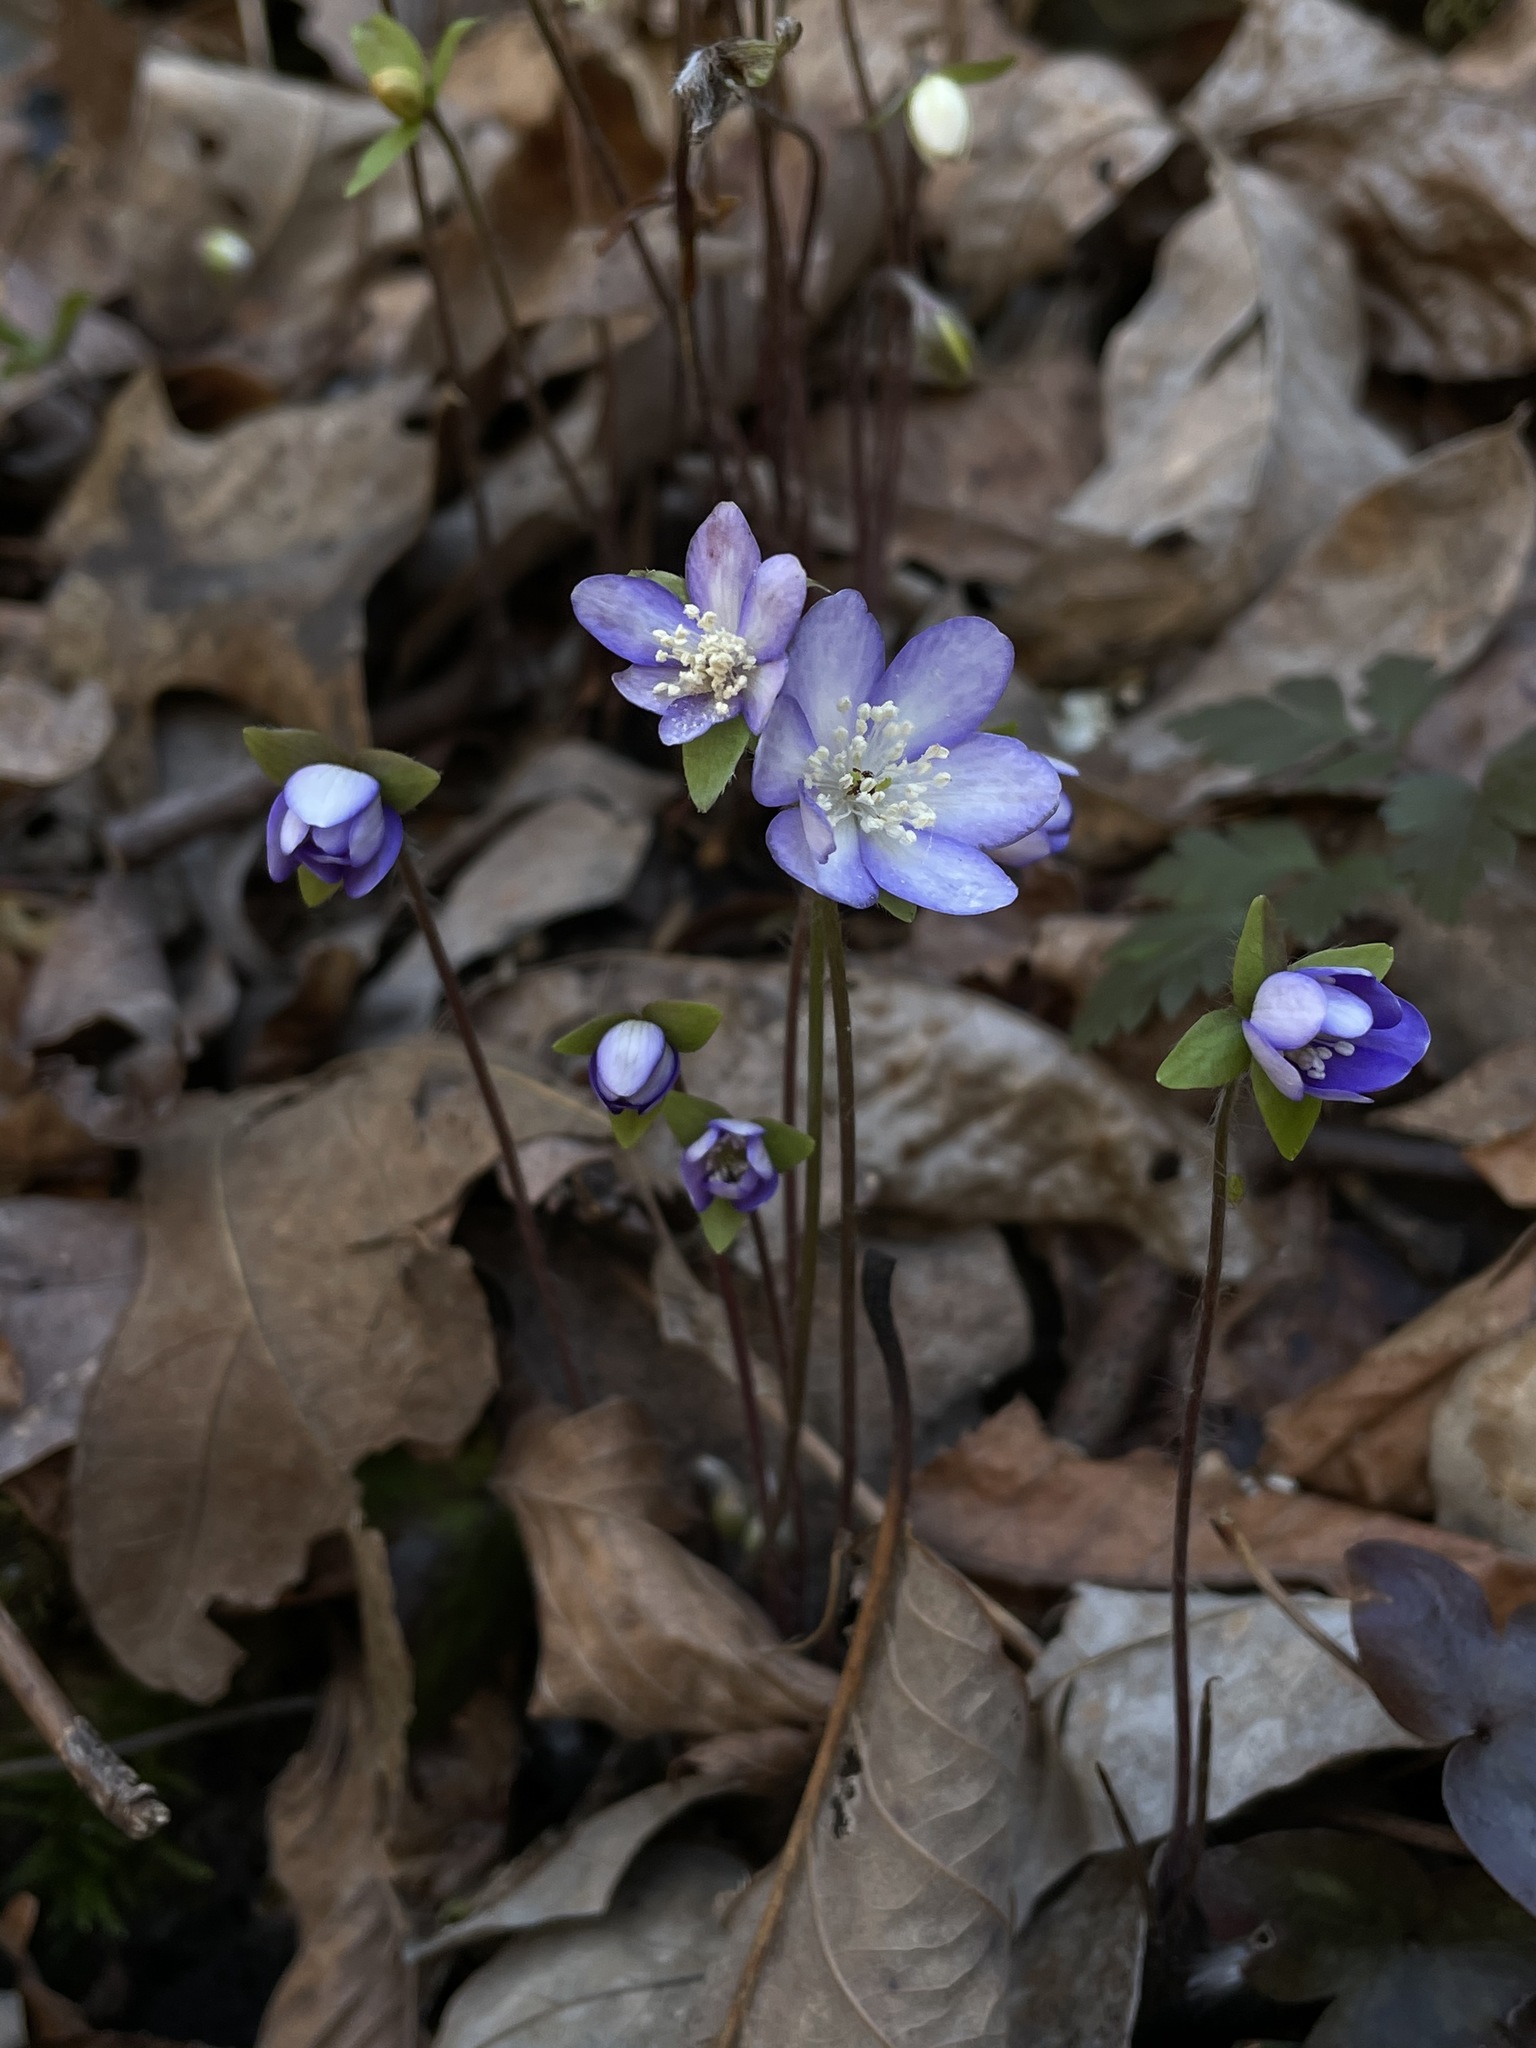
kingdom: Plantae
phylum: Tracheophyta
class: Magnoliopsida
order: Ranunculales
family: Ranunculaceae
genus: Hepatica
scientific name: Hepatica acutiloba
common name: Sharp-lobed hepatica
